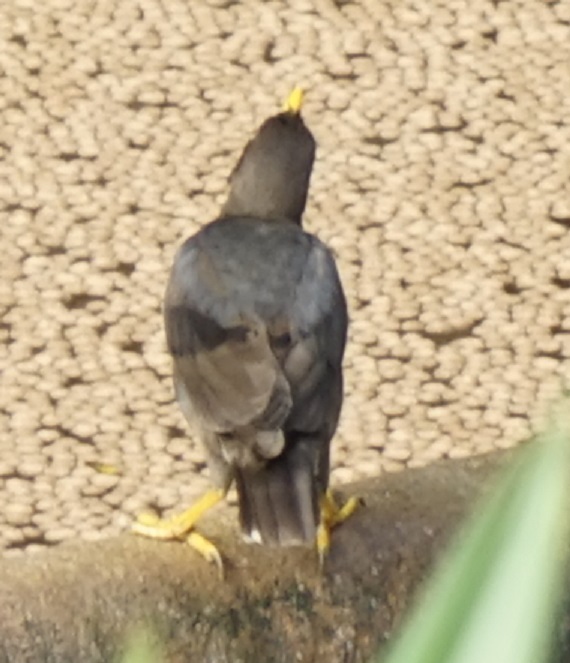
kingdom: Animalia
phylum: Chordata
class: Aves
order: Passeriformes
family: Sturnidae
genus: Acridotheres
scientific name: Acridotheres javanicus
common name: Javan myna
